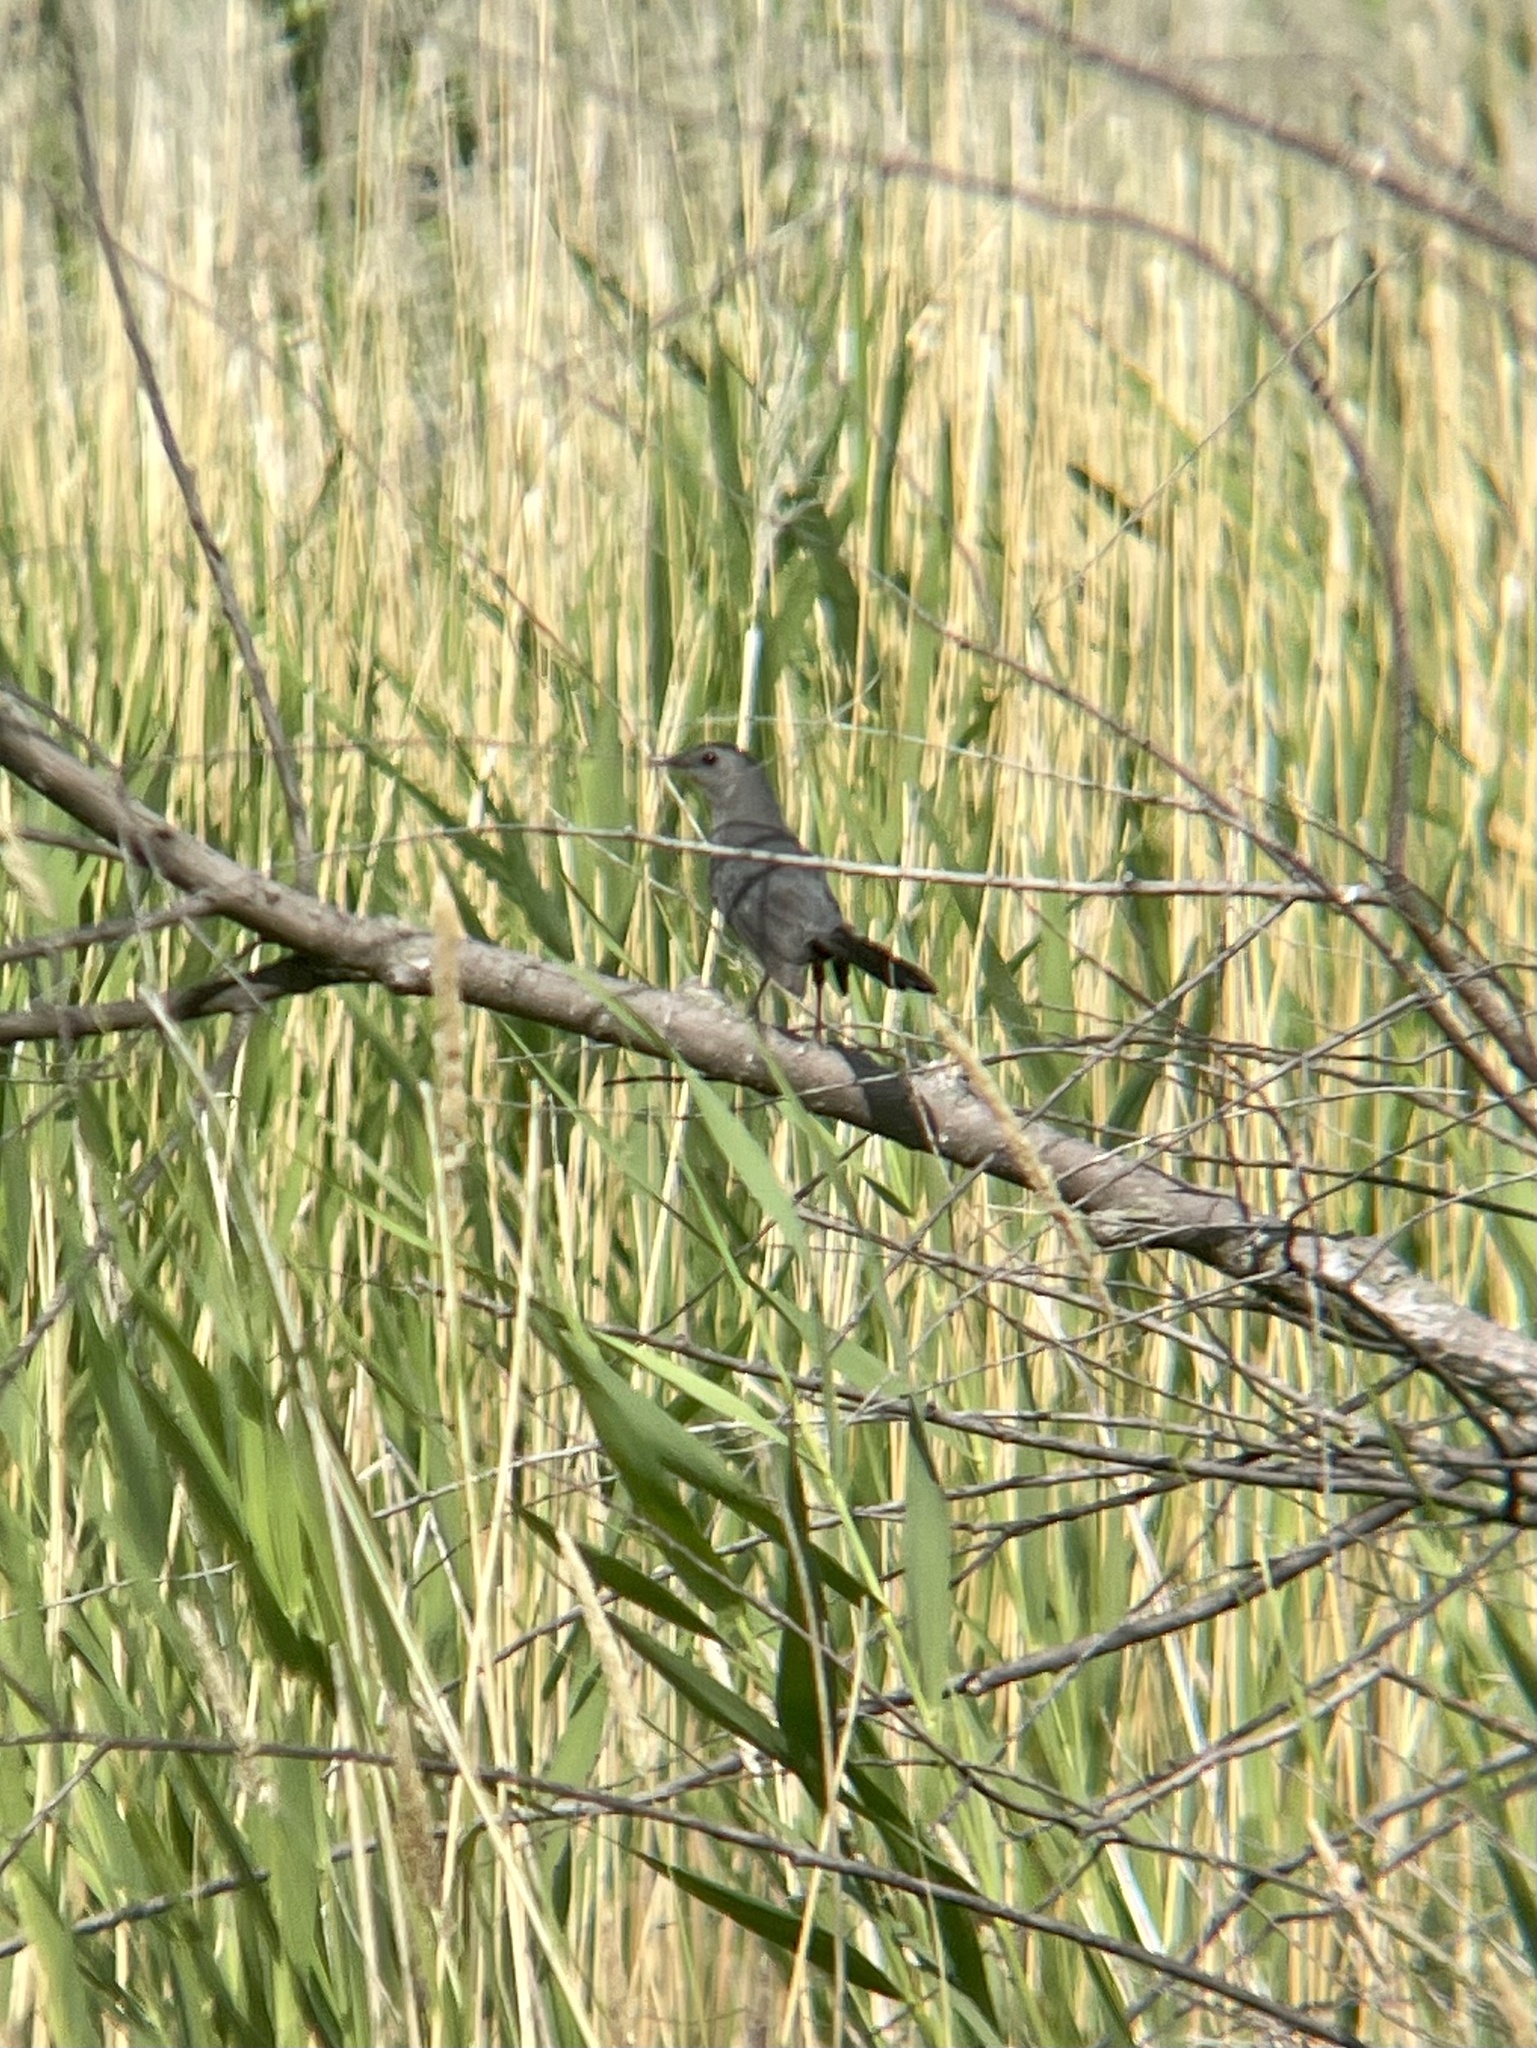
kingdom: Animalia
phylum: Chordata
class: Aves
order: Passeriformes
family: Mimidae
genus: Dumetella
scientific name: Dumetella carolinensis
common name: Gray catbird
